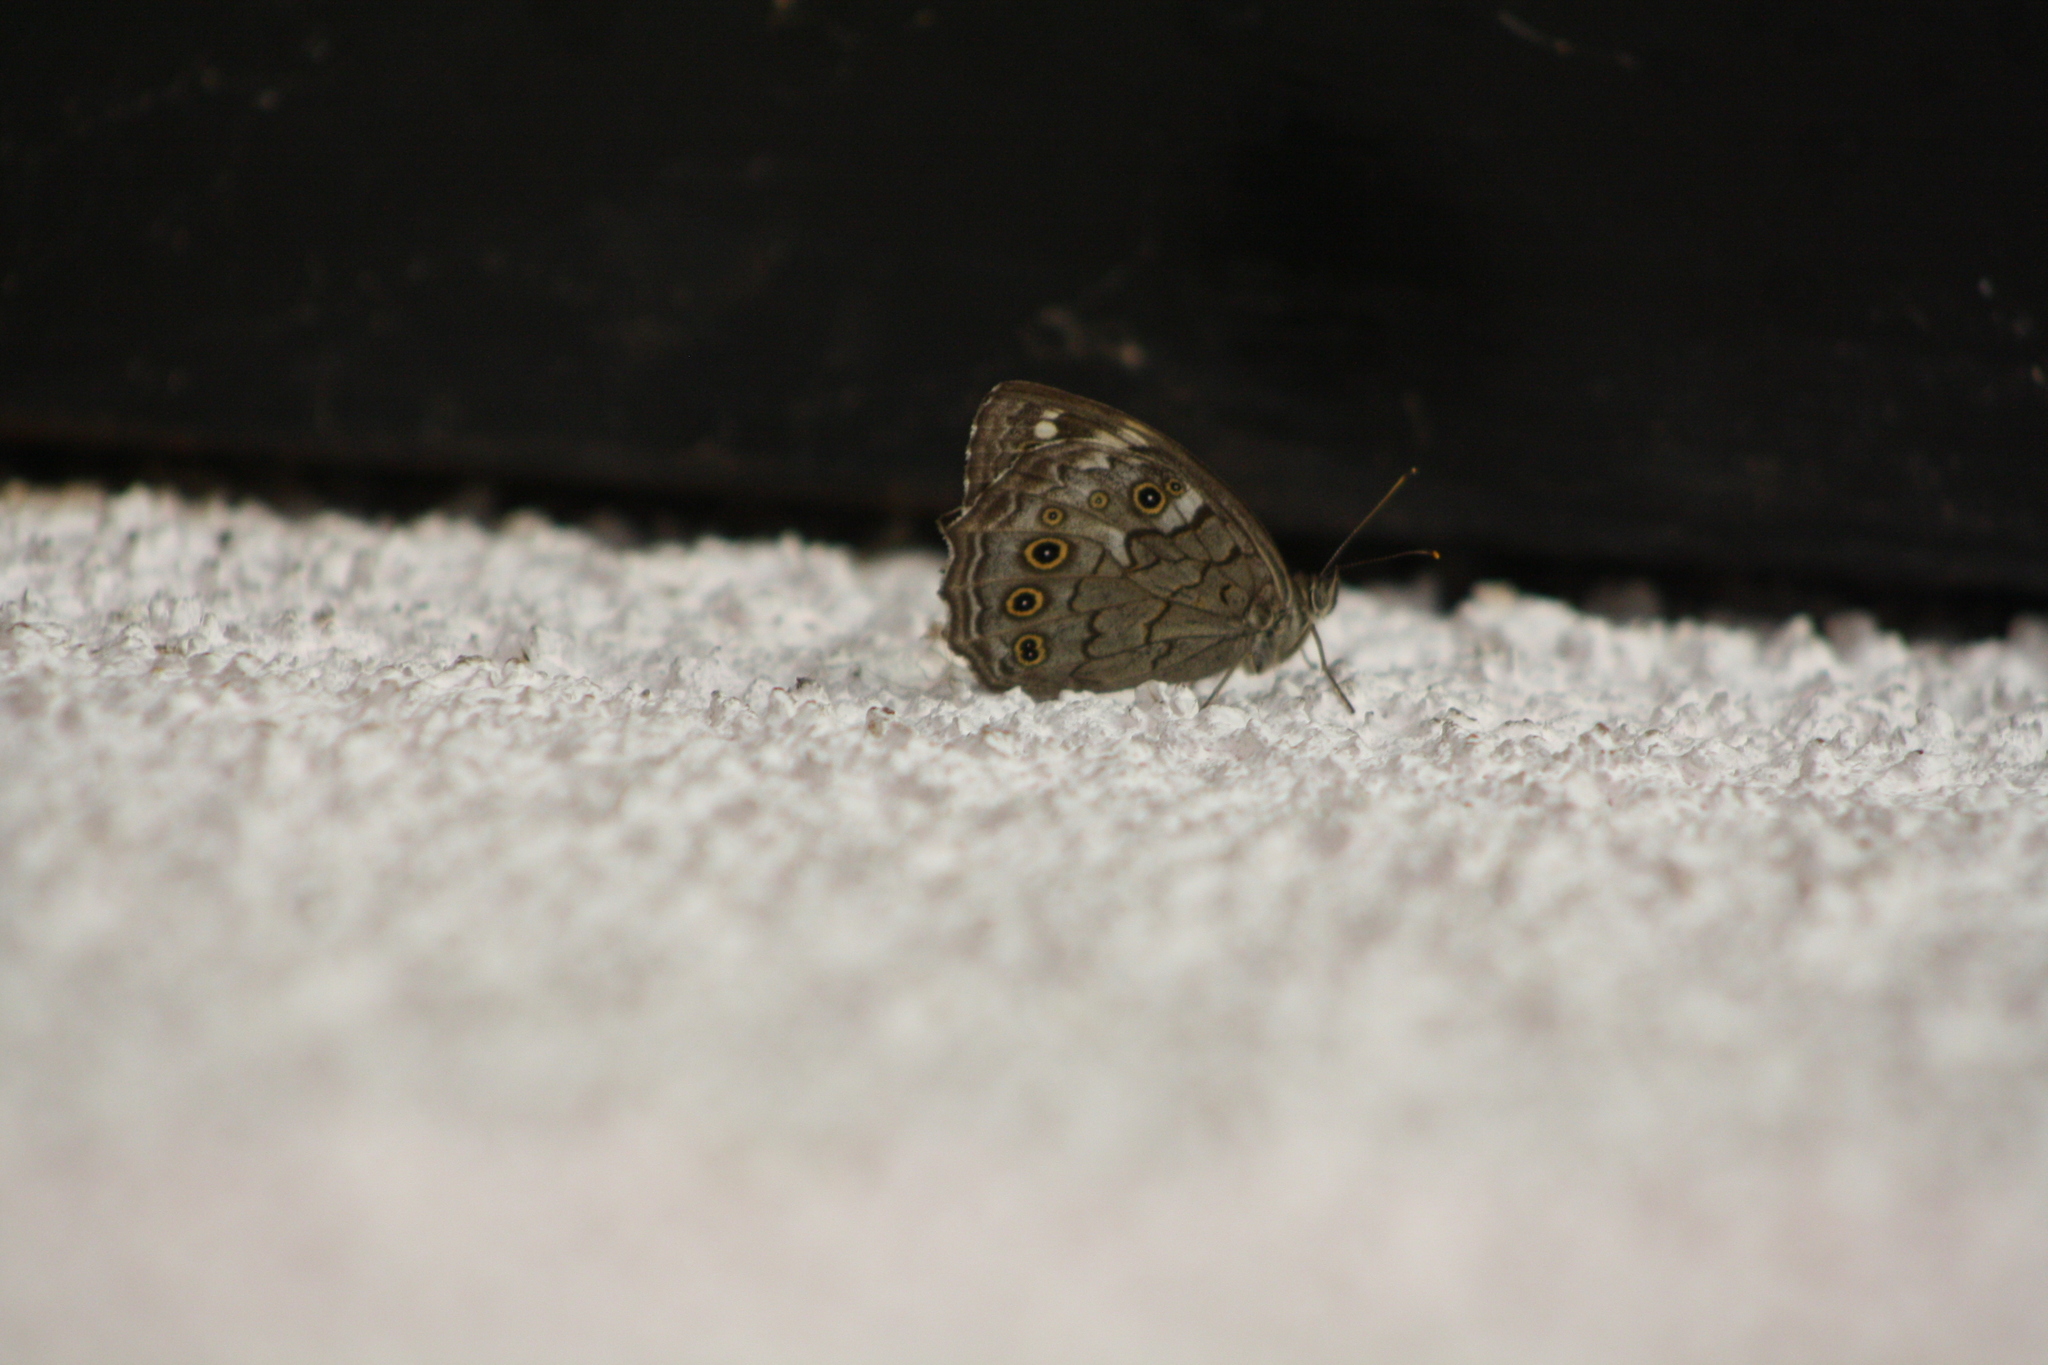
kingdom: Animalia
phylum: Arthropoda
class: Insecta
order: Lepidoptera
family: Nymphalidae
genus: Kirinia
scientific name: Kirinia roxelana
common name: Lattice brown
